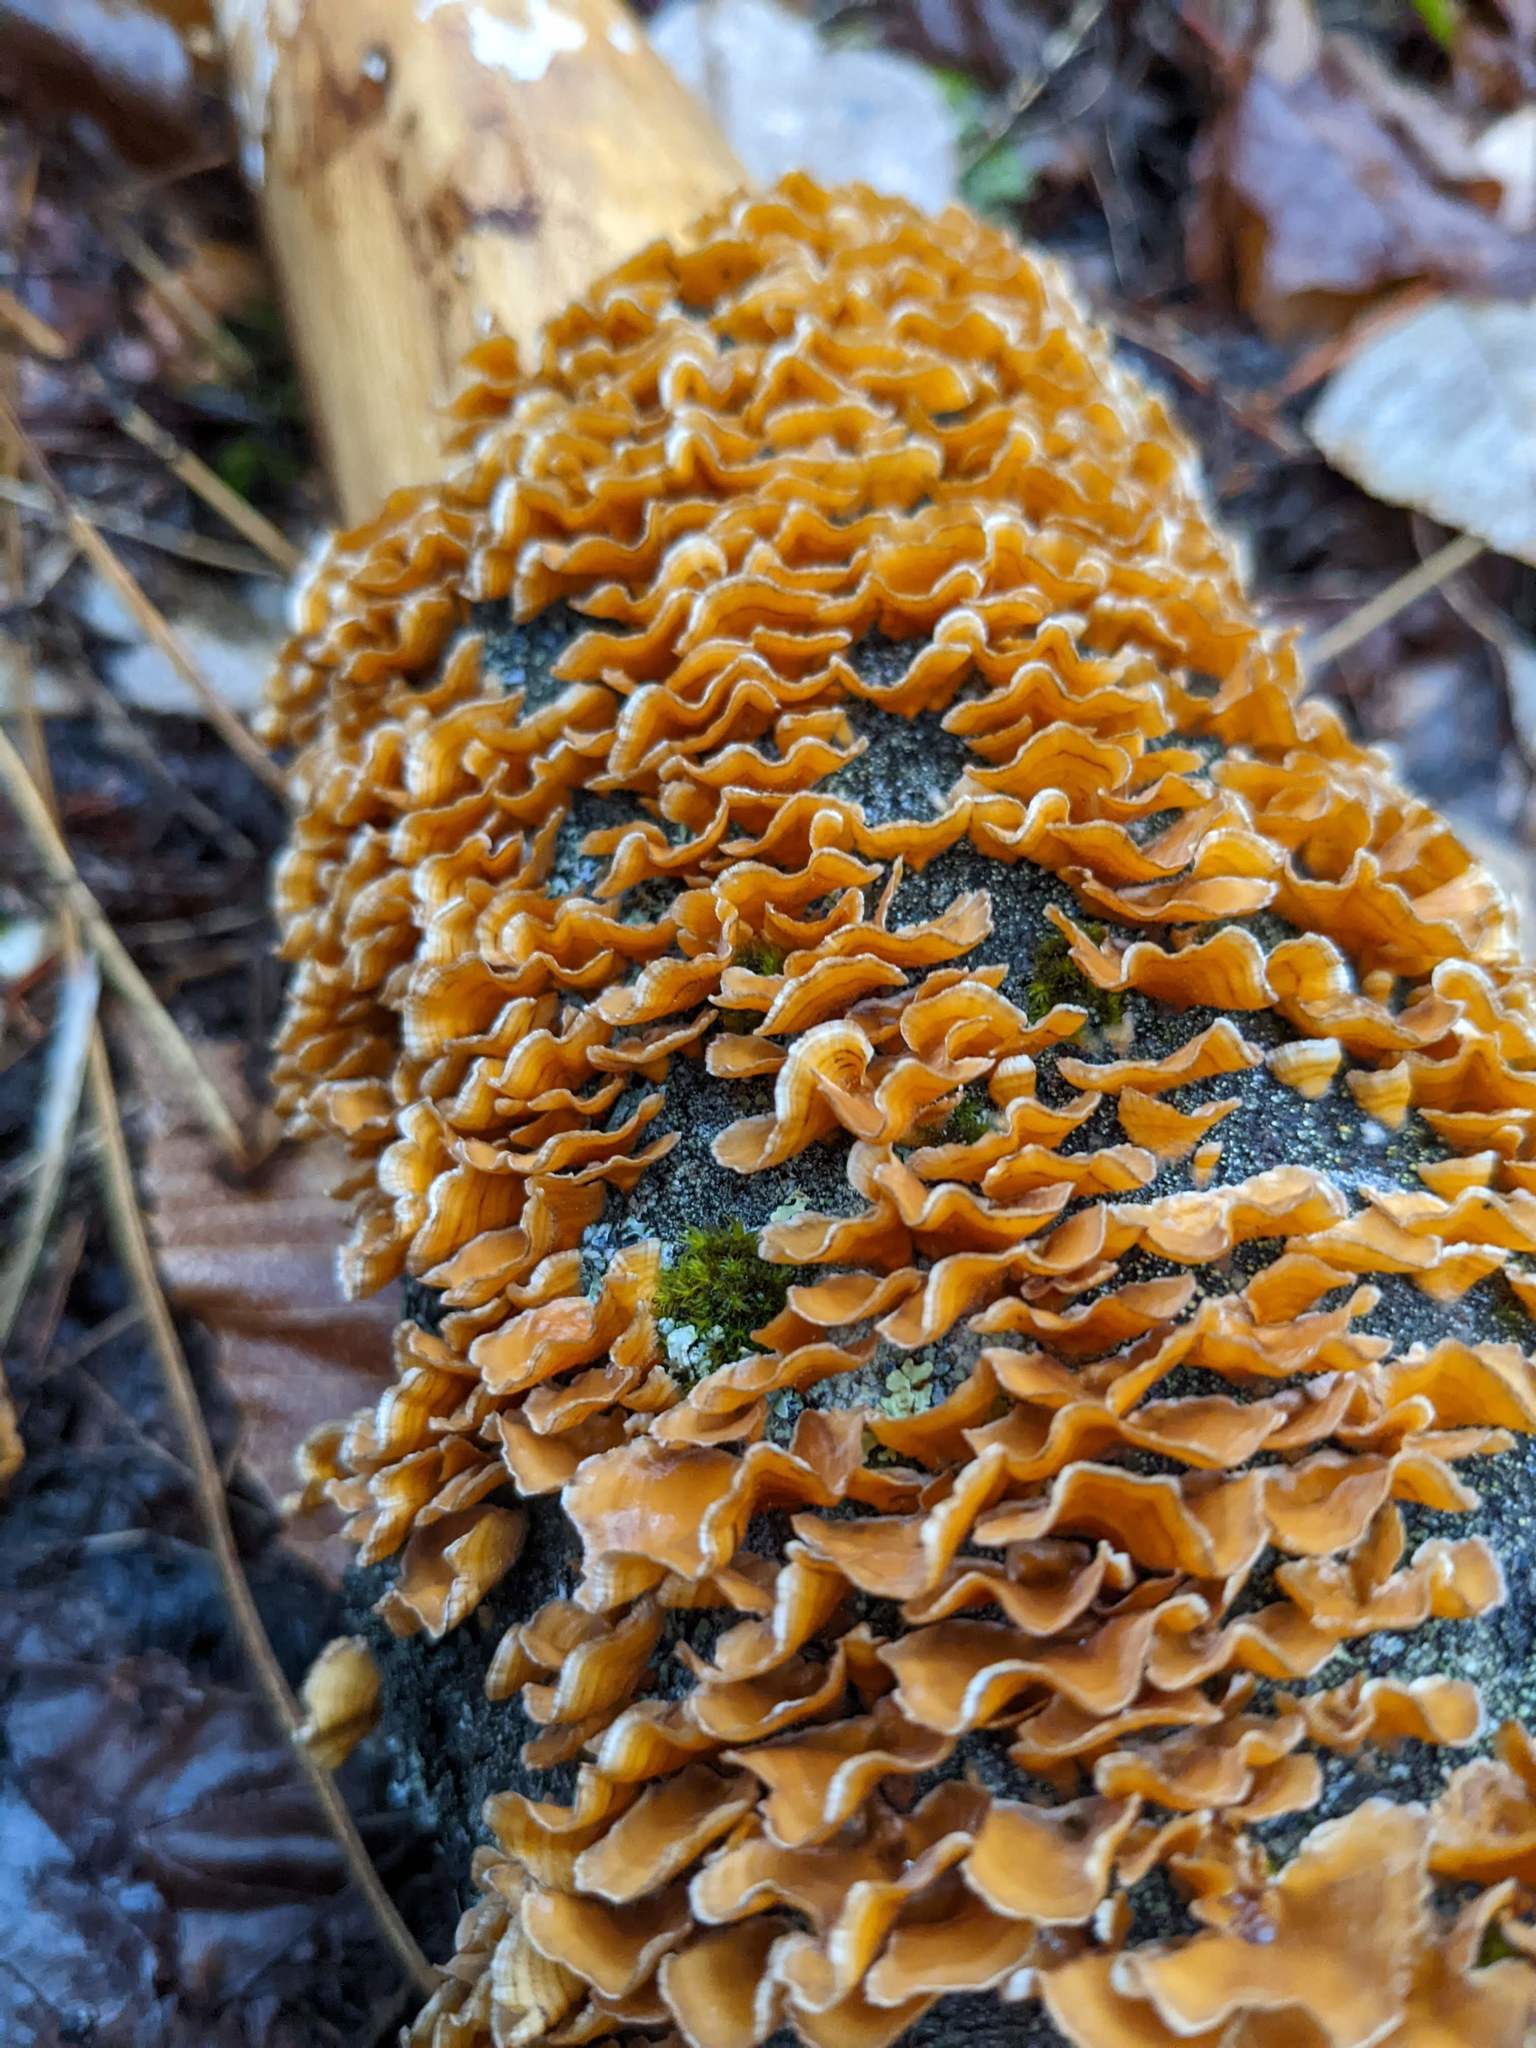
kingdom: Fungi
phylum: Basidiomycota
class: Agaricomycetes
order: Russulales
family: Stereaceae
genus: Stereum
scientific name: Stereum complicatum
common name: Crowded parchment
